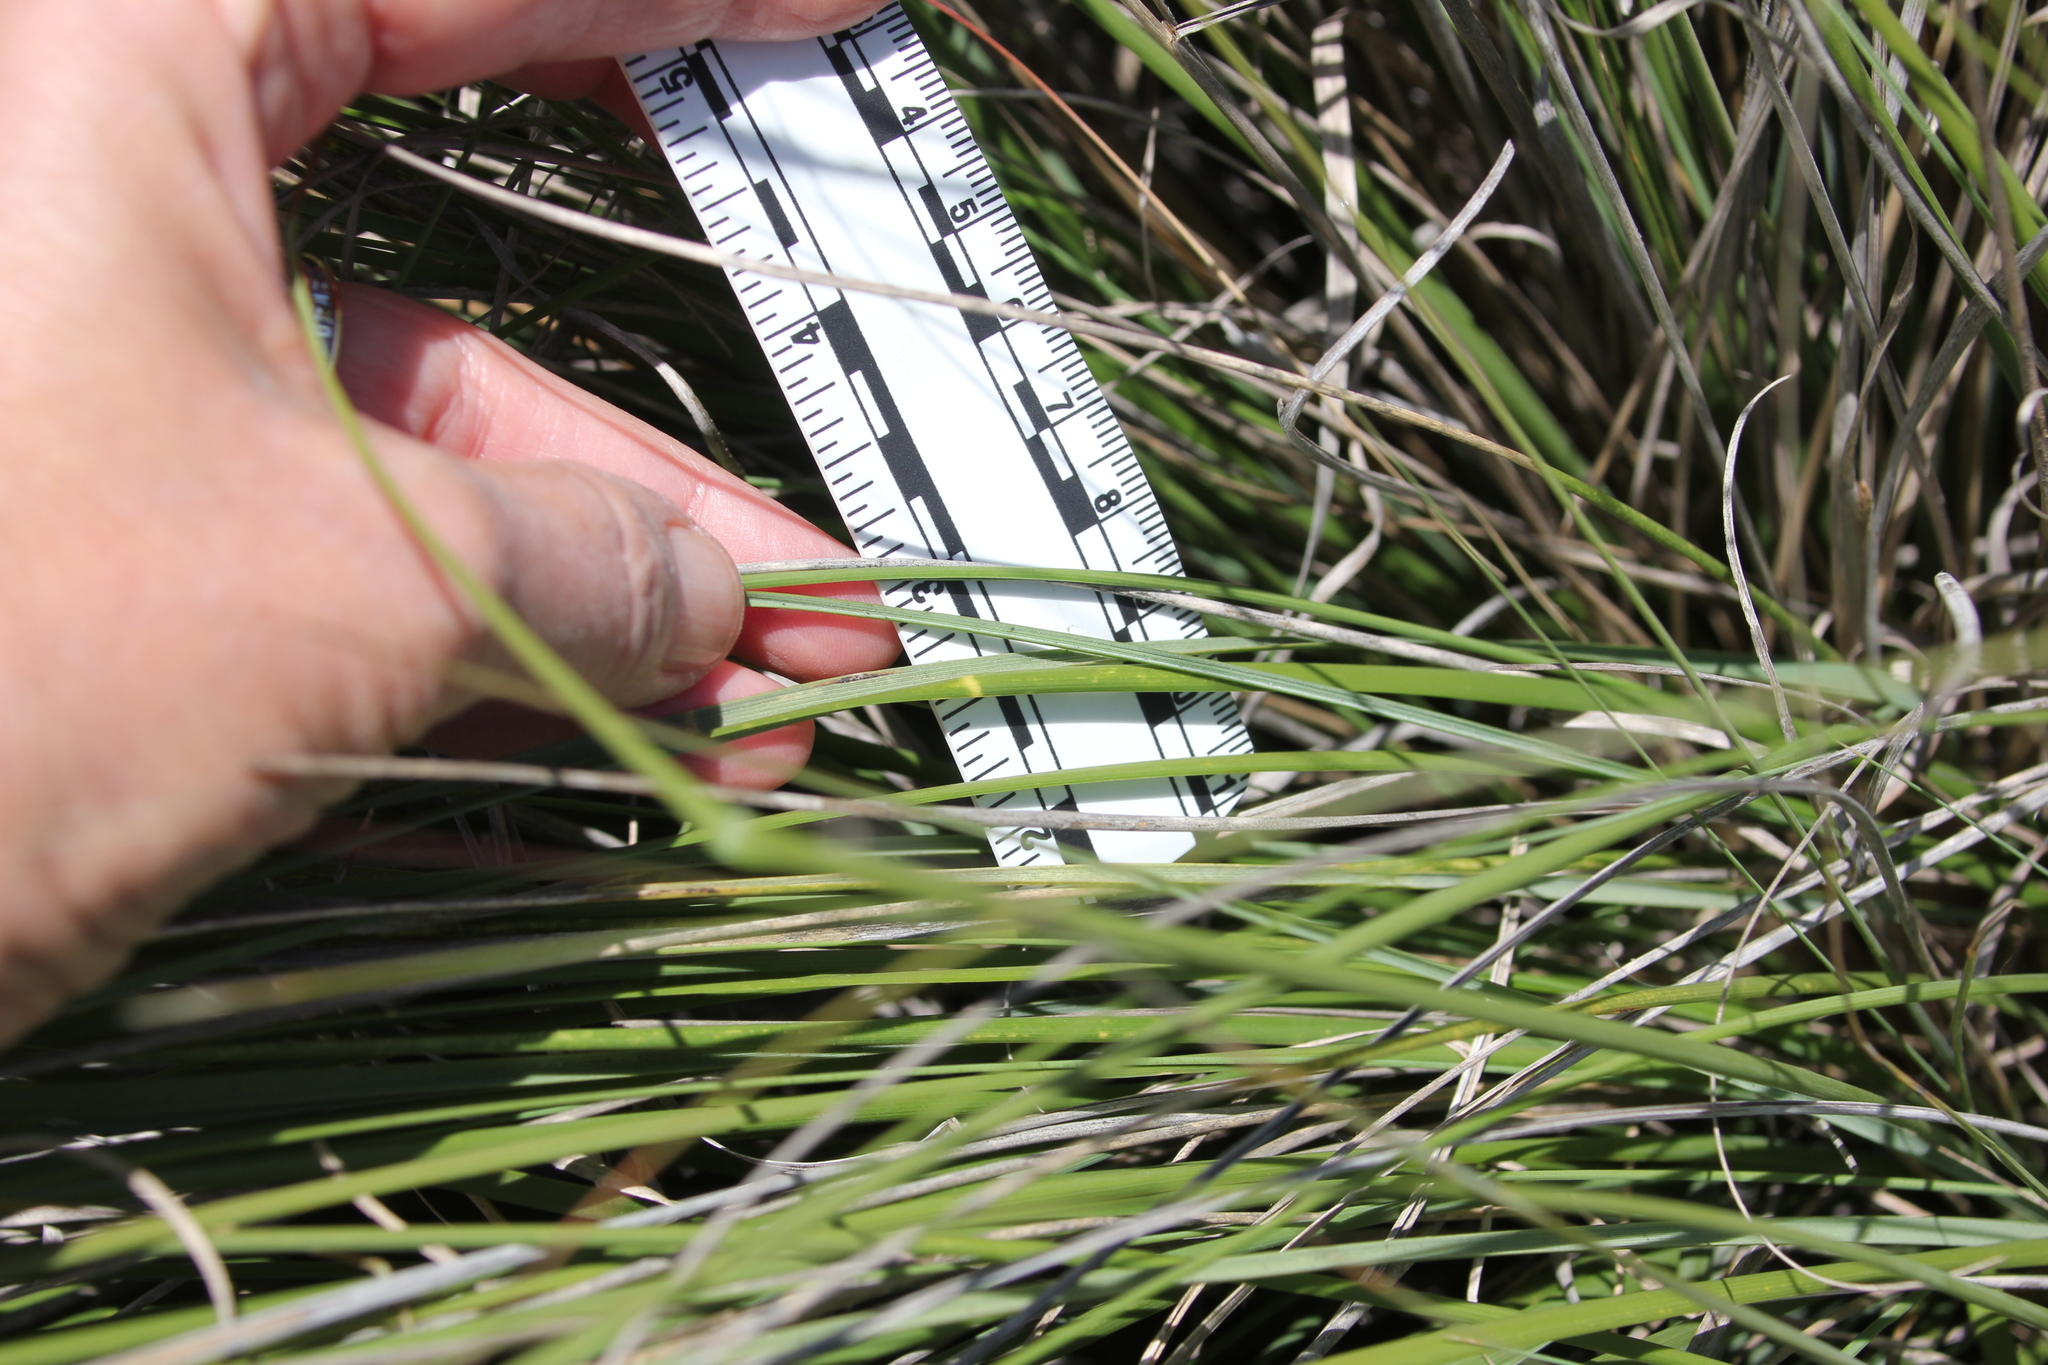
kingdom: Plantae
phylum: Tracheophyta
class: Liliopsida
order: Poales
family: Poaceae
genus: Muhlenbergia
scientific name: Muhlenbergia rigens
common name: Deer grass
